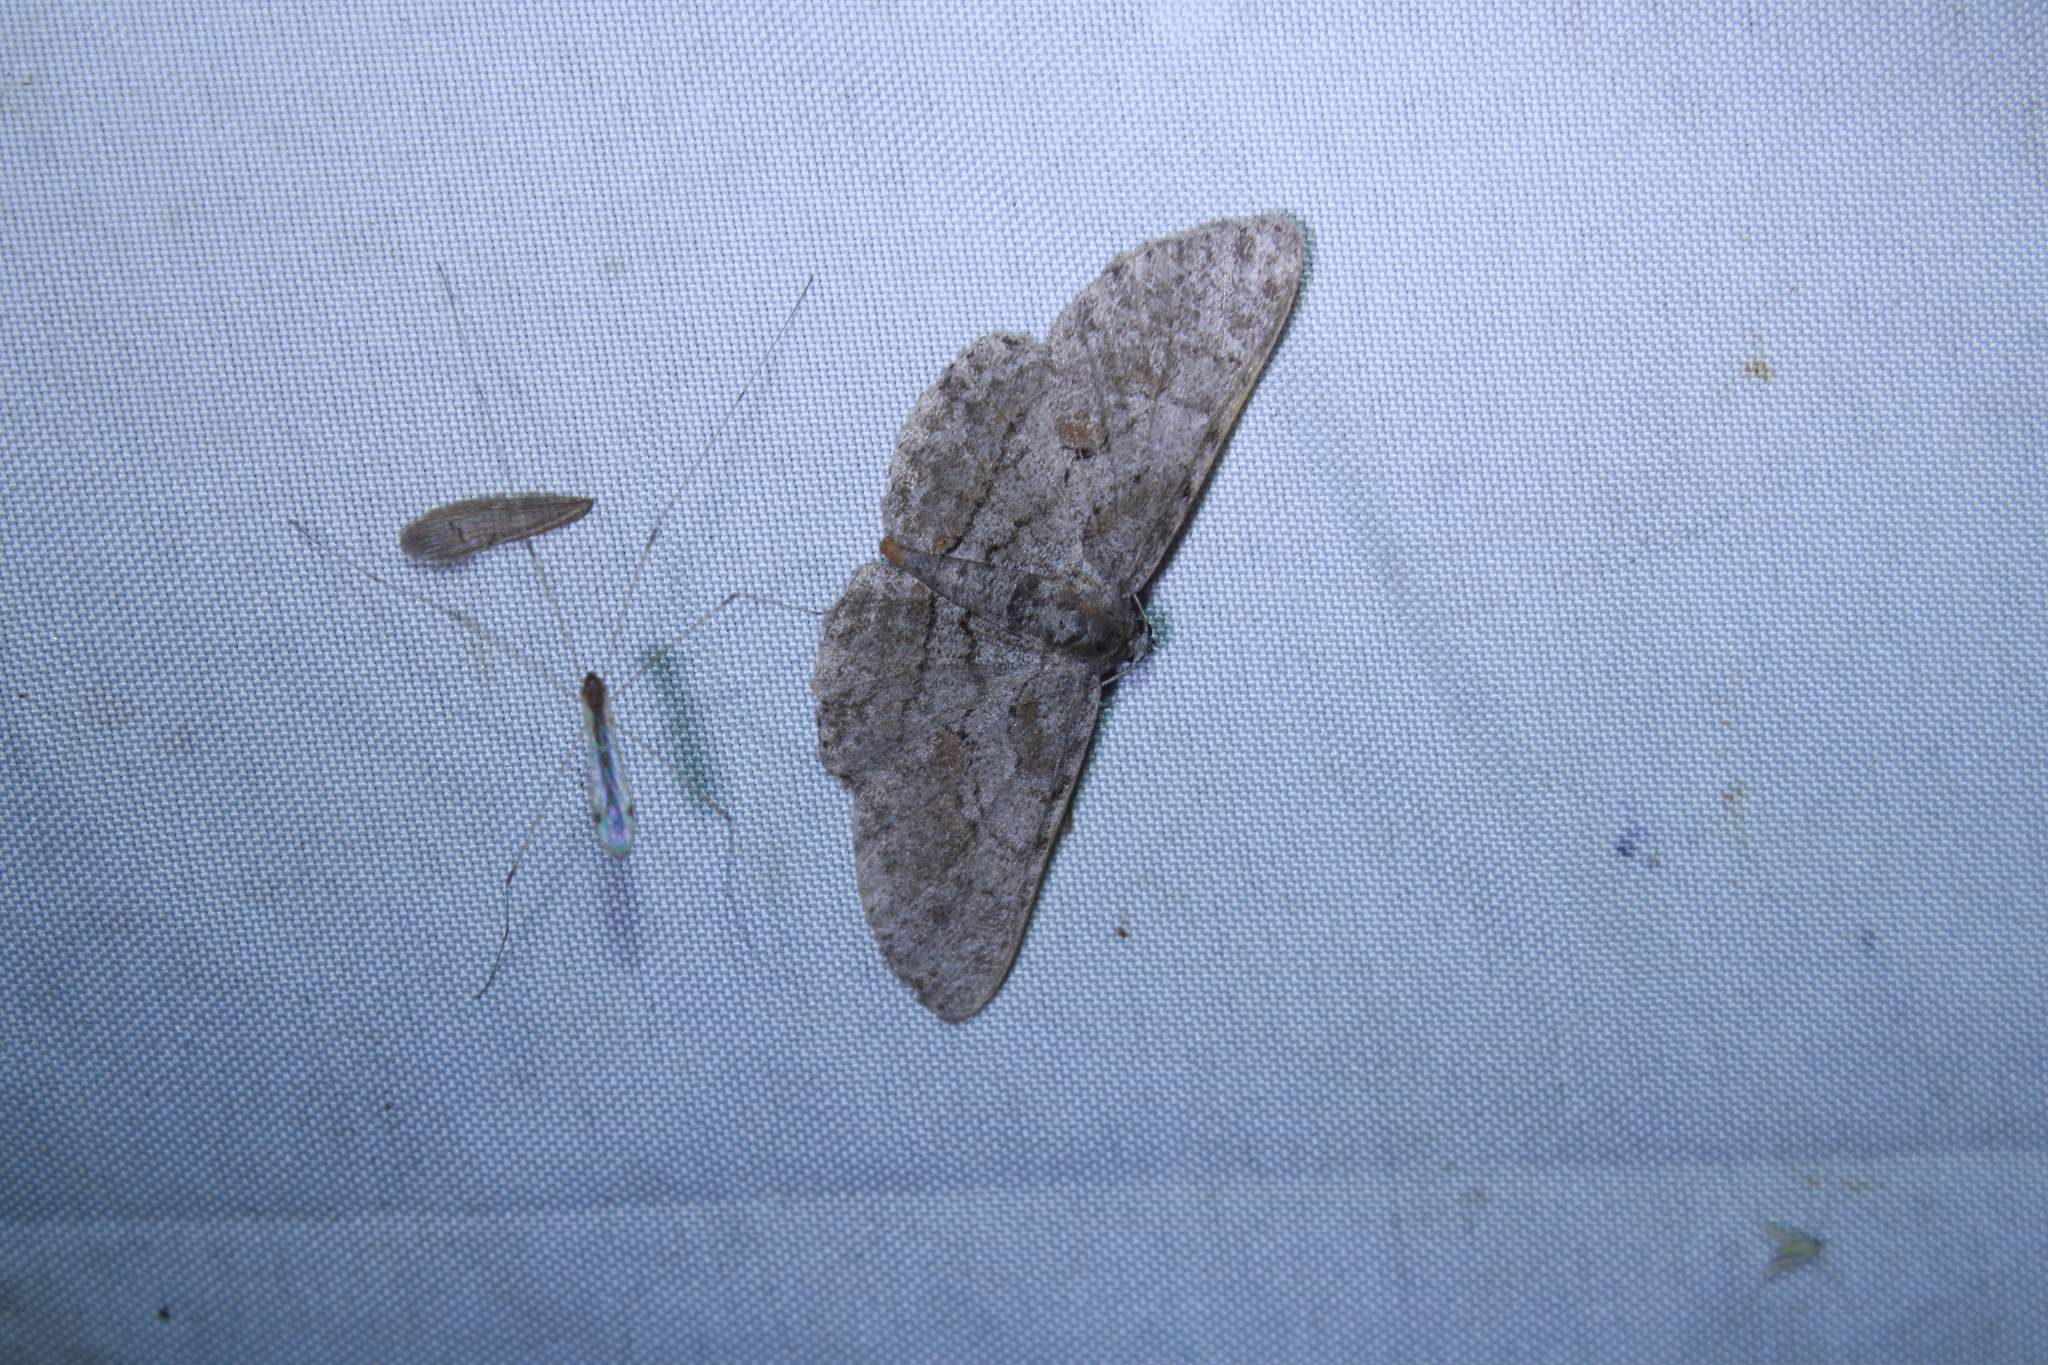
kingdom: Animalia
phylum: Arthropoda
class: Insecta
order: Lepidoptera
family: Geometridae
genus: Iridopsis
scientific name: Iridopsis vellivolata
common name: Large purplish gray
